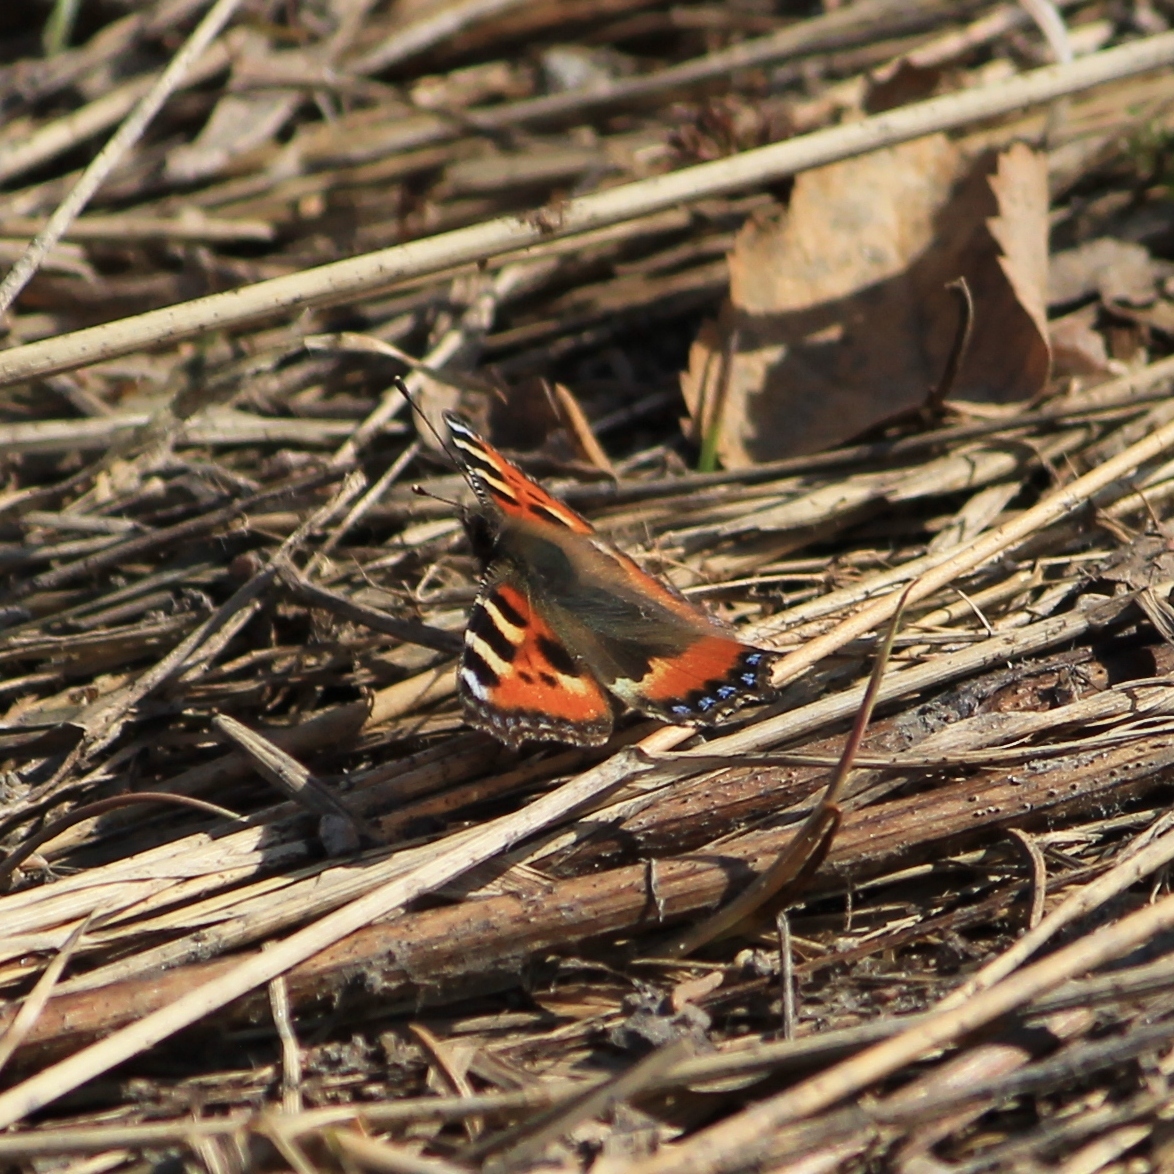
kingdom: Animalia
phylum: Arthropoda
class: Insecta
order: Lepidoptera
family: Nymphalidae
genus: Aglais
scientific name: Aglais urticae
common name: Small tortoiseshell
